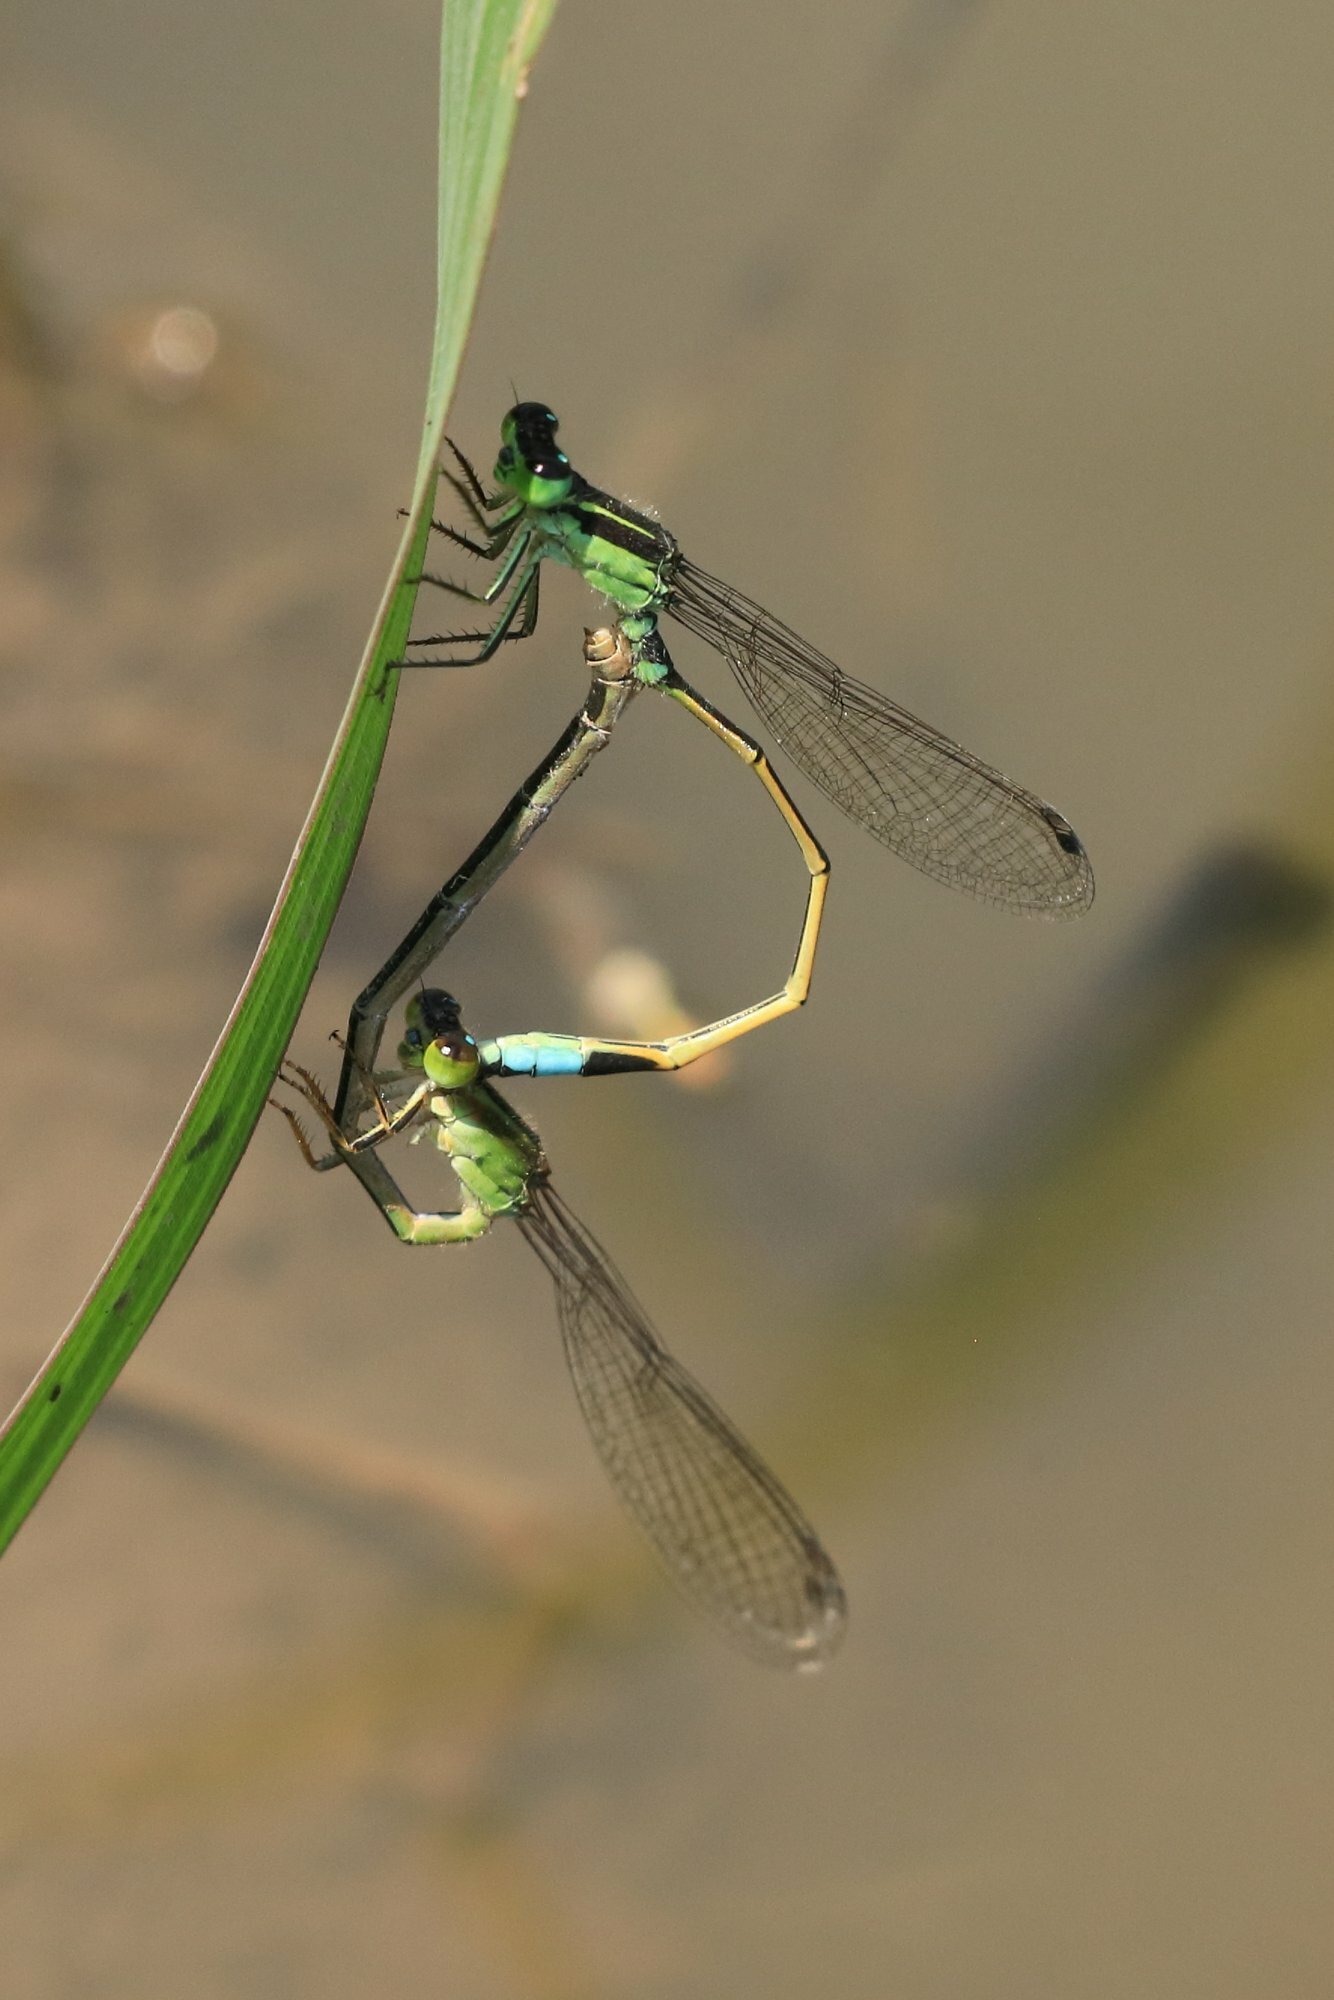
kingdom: Animalia
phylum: Arthropoda
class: Insecta
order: Odonata
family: Coenagrionidae
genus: Ischnura
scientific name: Ischnura senegalensis
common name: Tropical bluetail
